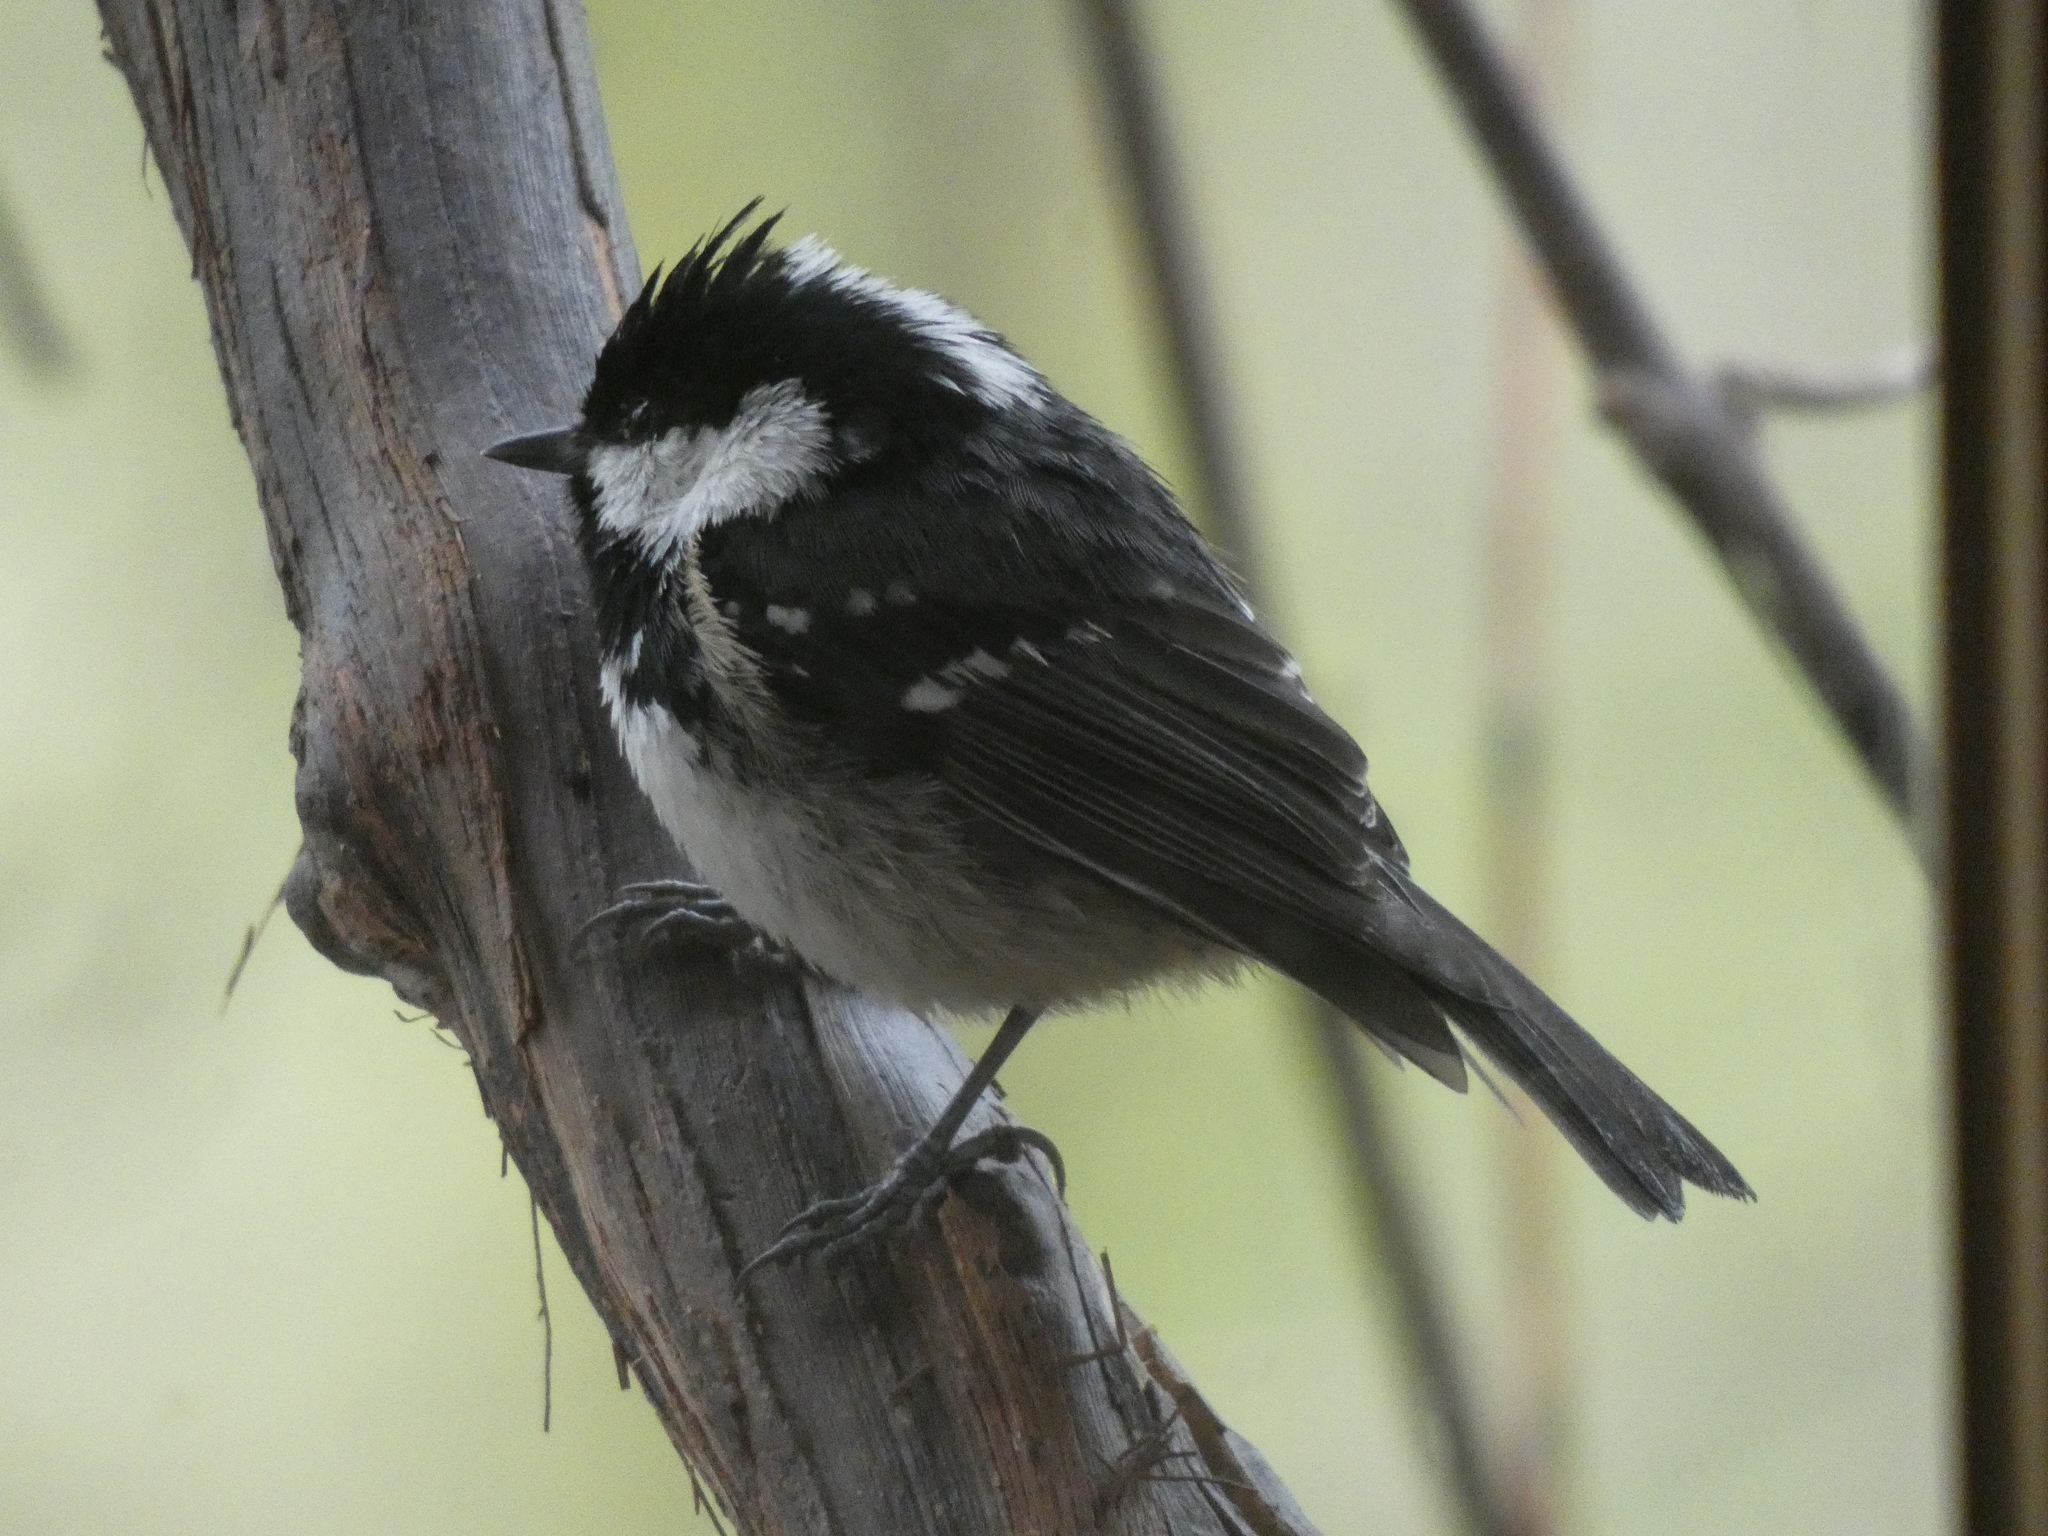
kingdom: Animalia
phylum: Chordata
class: Aves
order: Passeriformes
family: Paridae
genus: Periparus
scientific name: Periparus ater
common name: Coal tit
